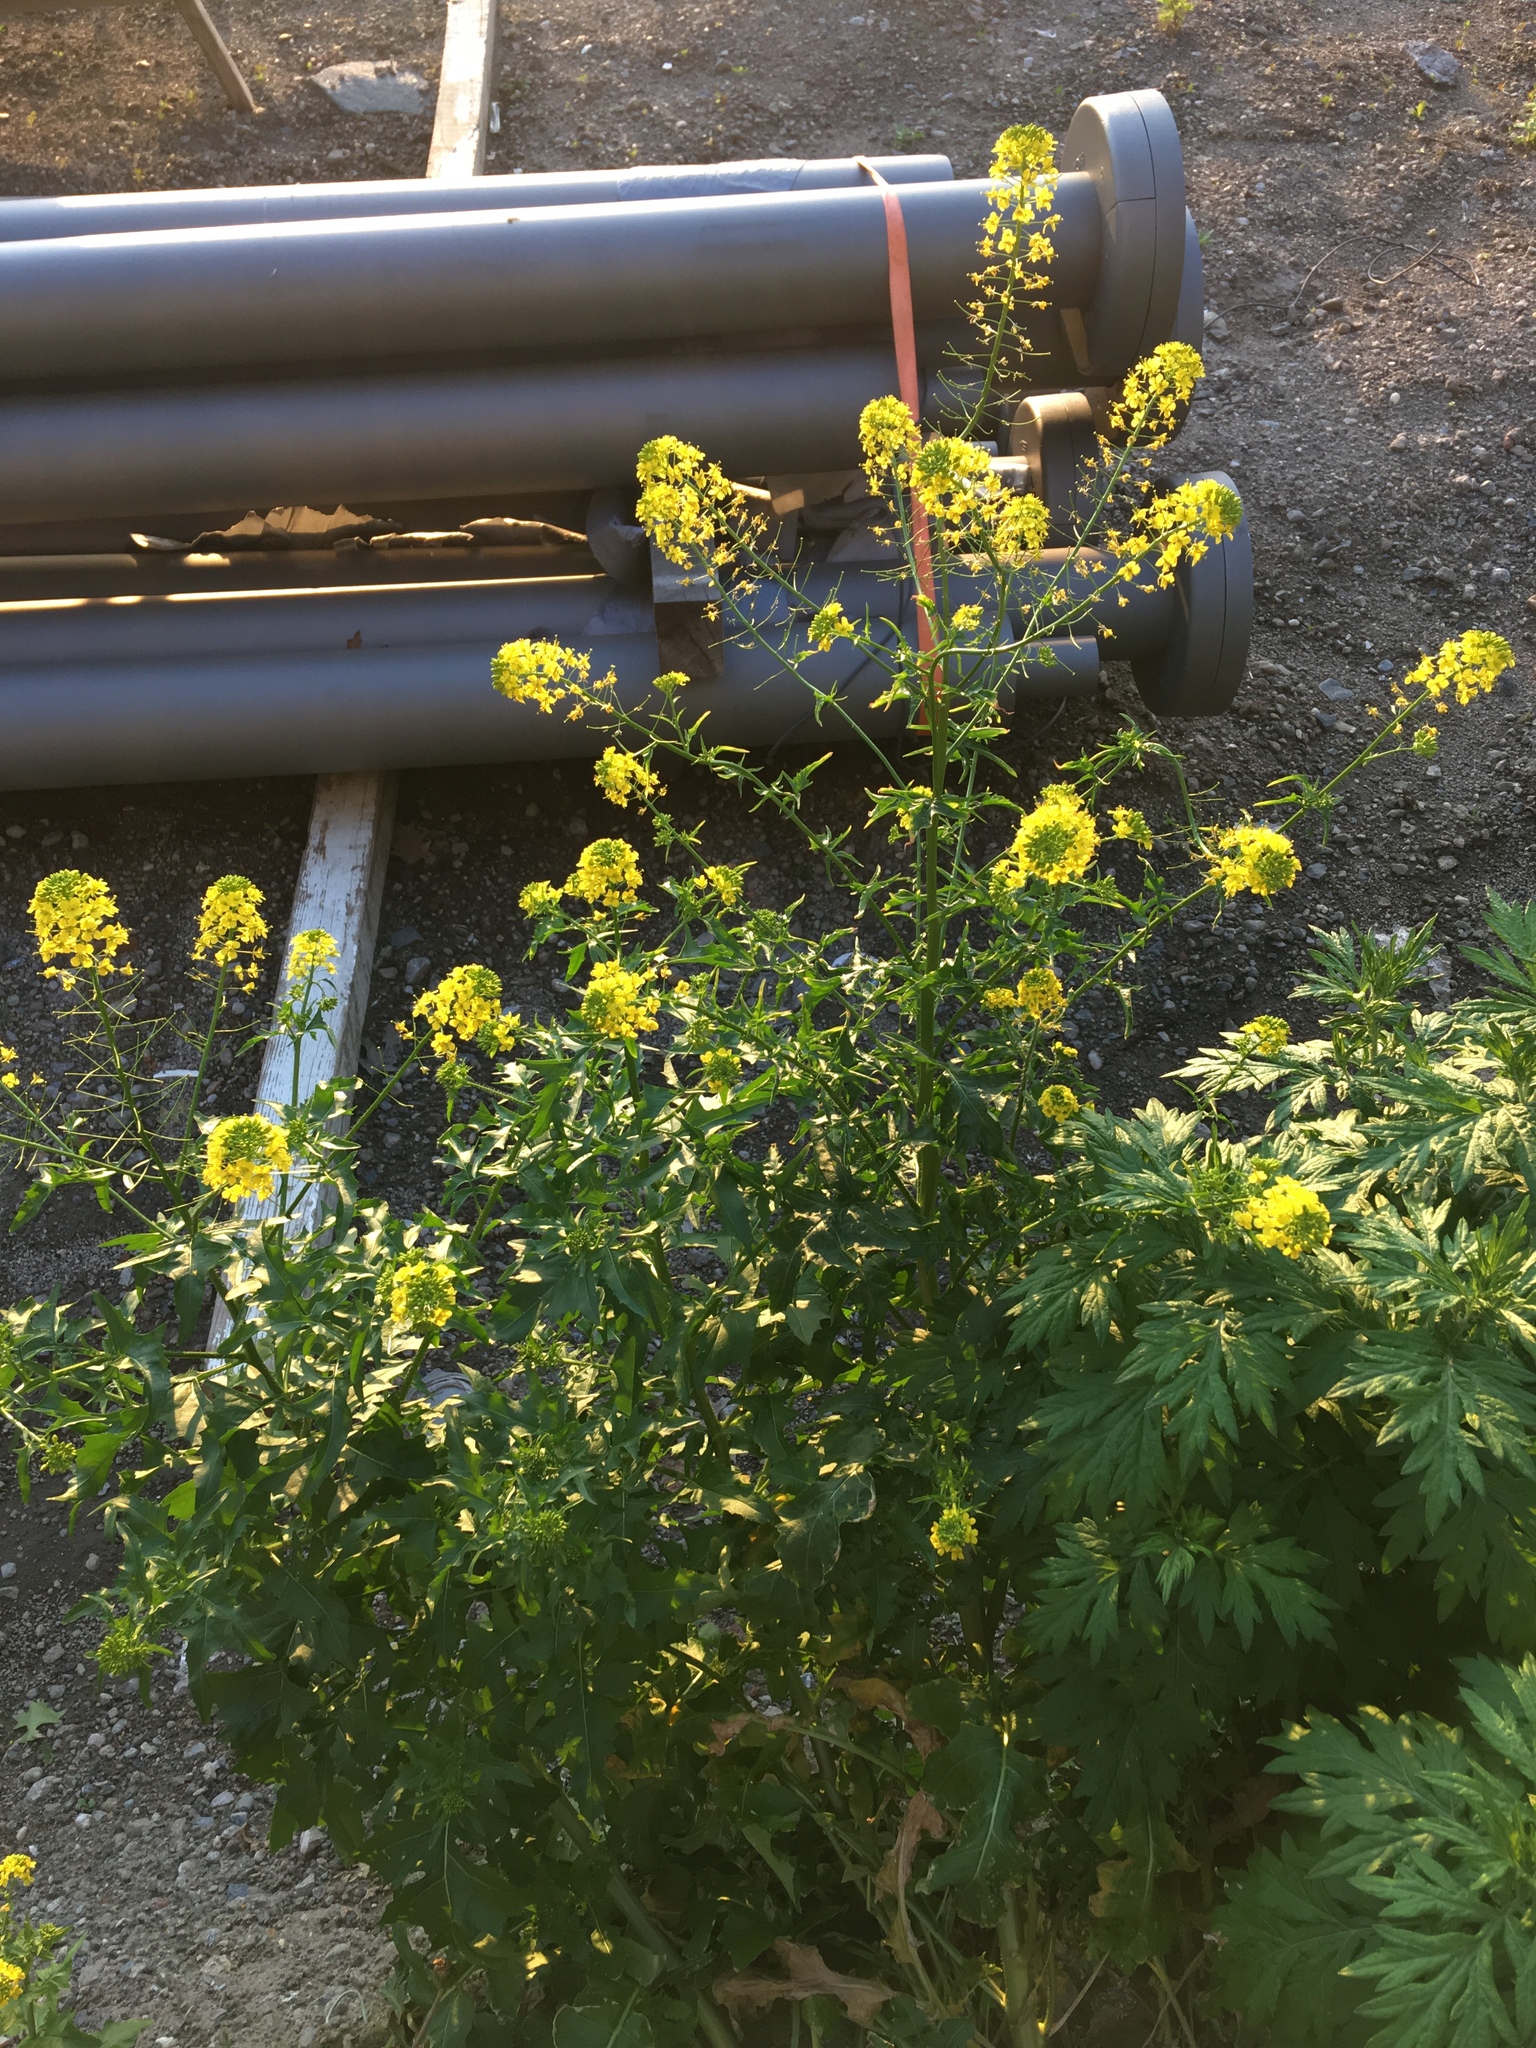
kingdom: Plantae
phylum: Tracheophyta
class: Magnoliopsida
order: Brassicales
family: Brassicaceae
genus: Sisymbrium
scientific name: Sisymbrium loeselii
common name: False london-rocket
